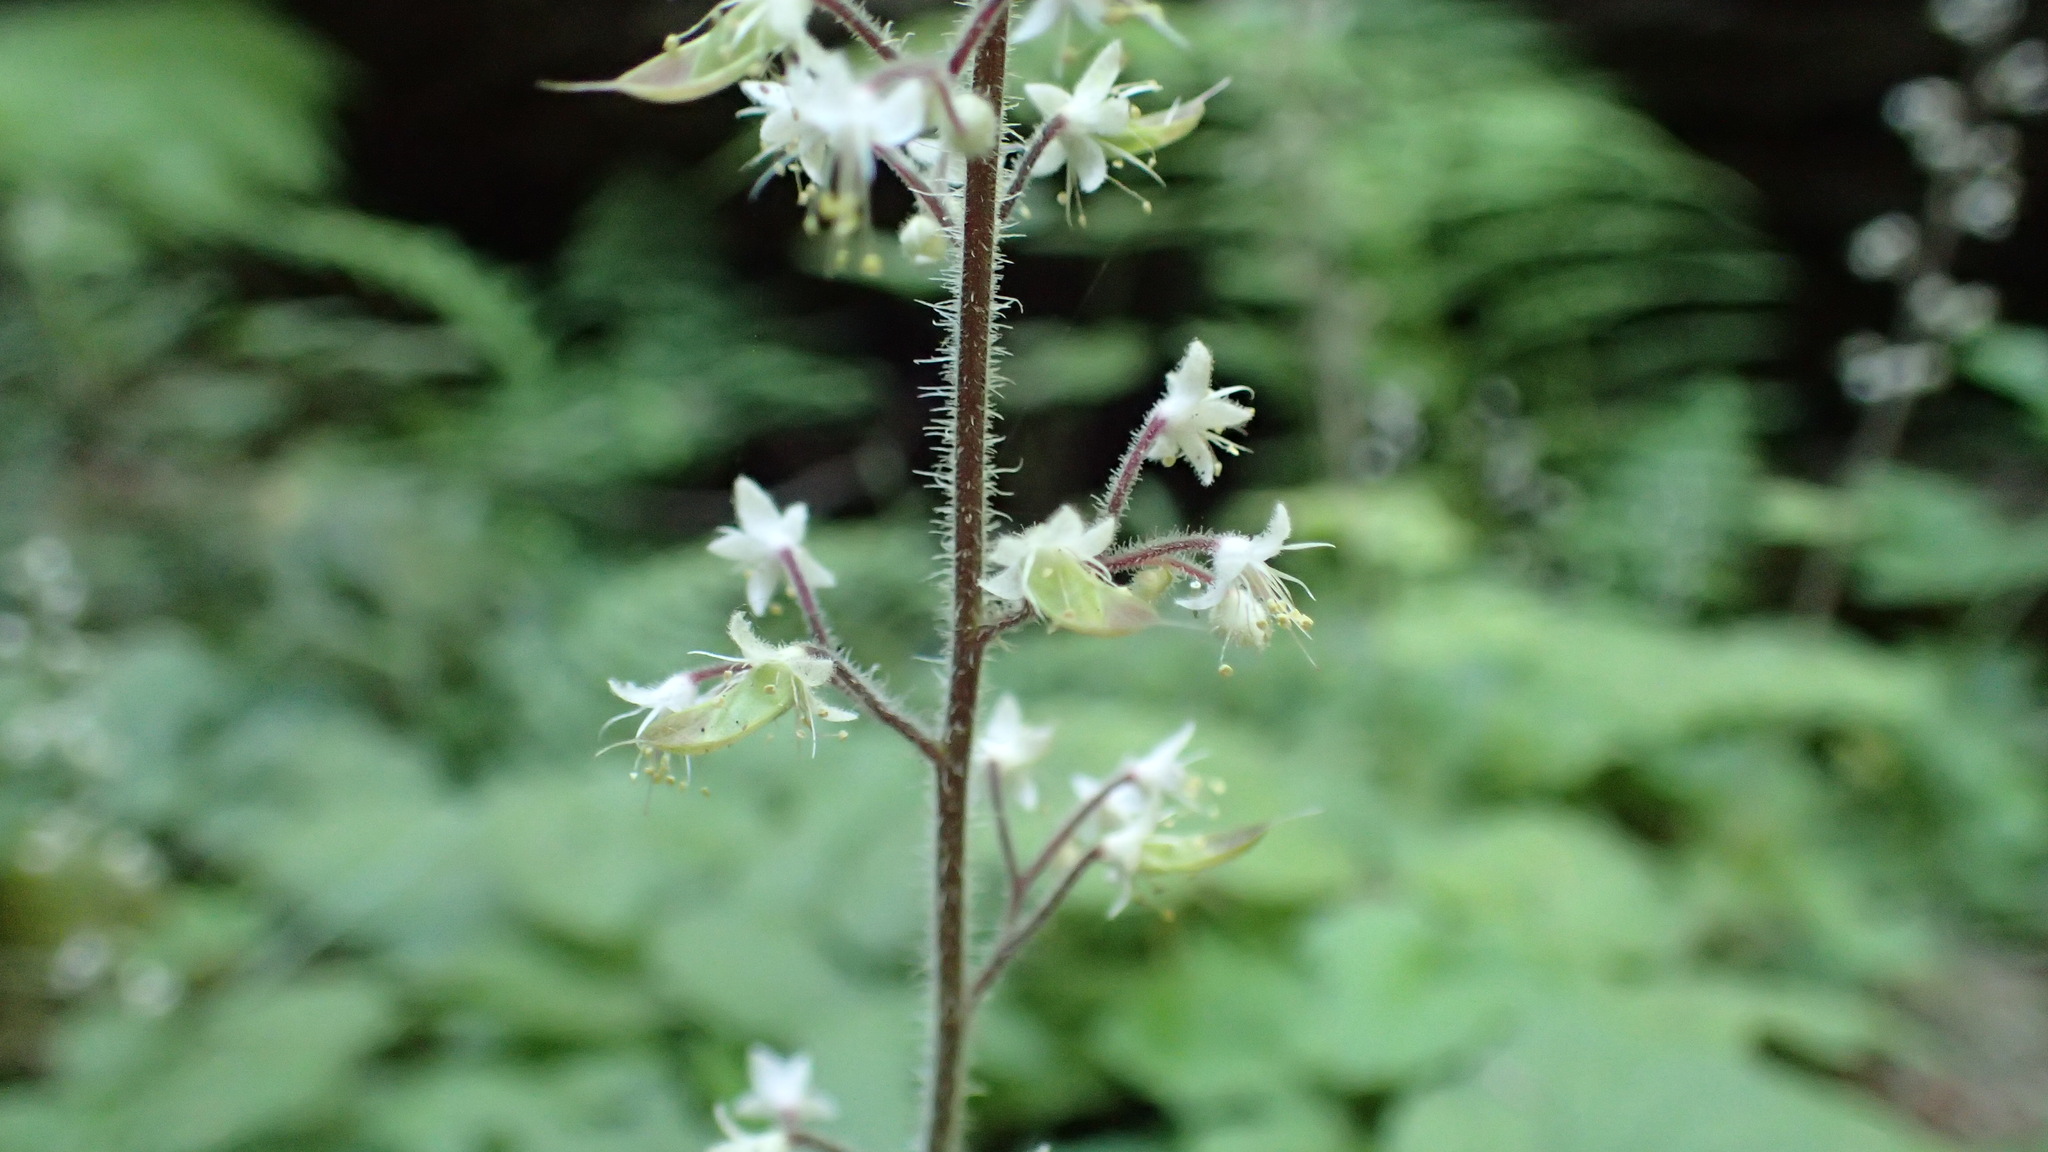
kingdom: Plantae
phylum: Tracheophyta
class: Magnoliopsida
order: Saxifragales
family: Saxifragaceae
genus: Tiarella
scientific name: Tiarella trifoliata
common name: Sugar-scoop
